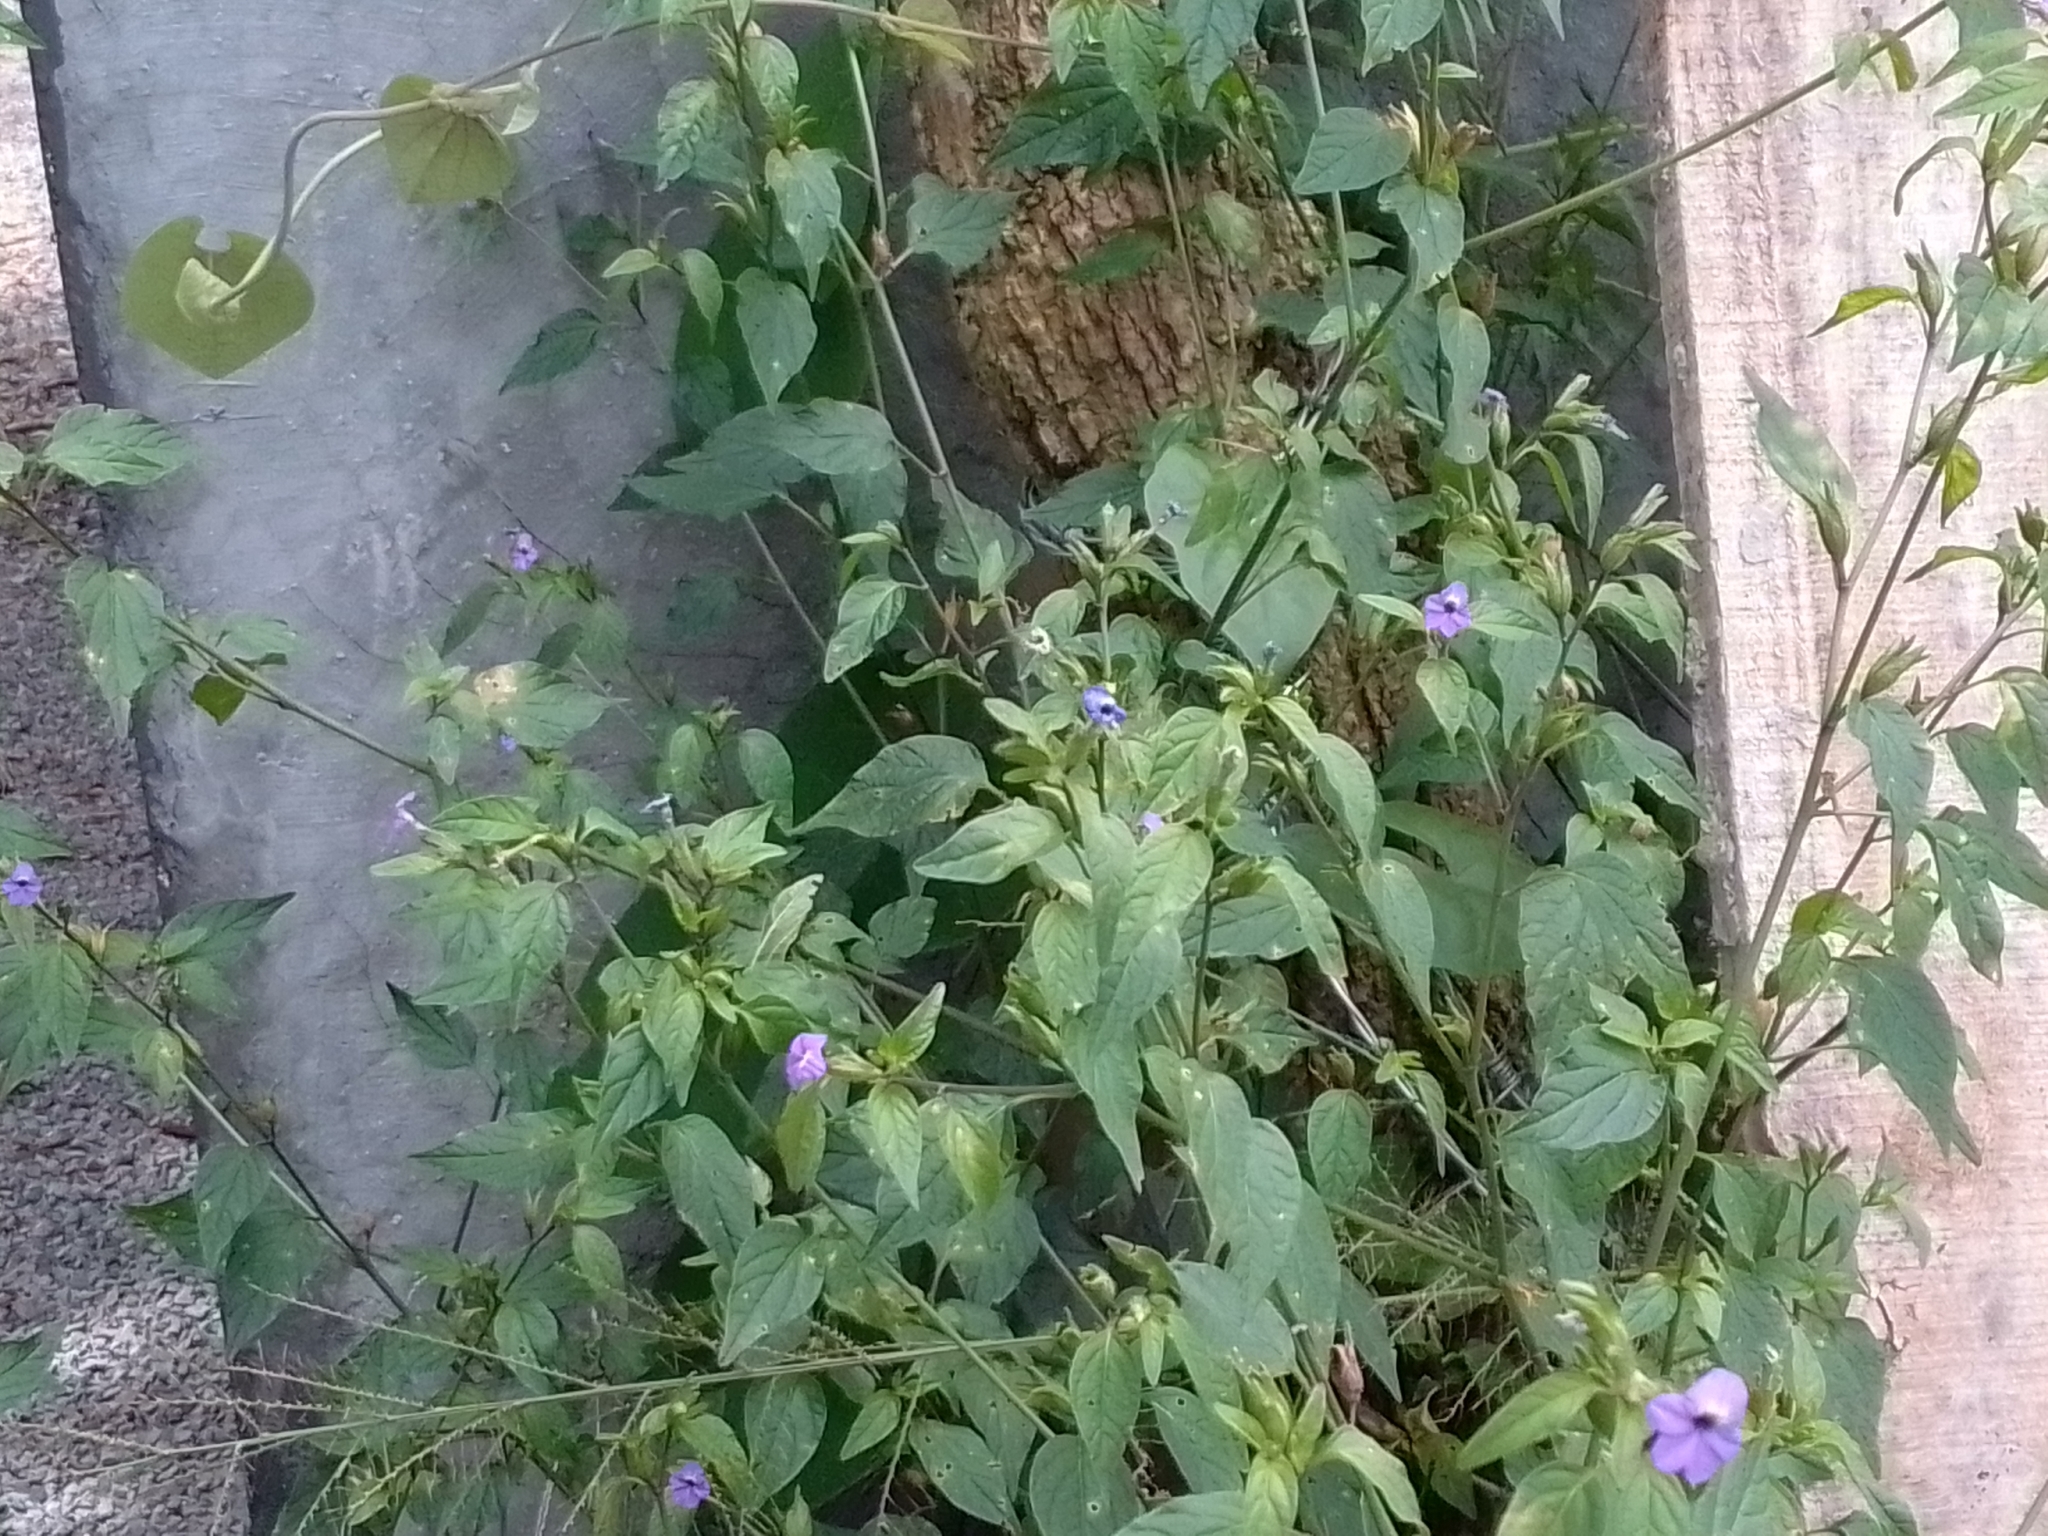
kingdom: Plantae
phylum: Tracheophyta
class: Magnoliopsida
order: Solanales
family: Solanaceae
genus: Browallia
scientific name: Browallia americana
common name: Jamaican forget-me-not
